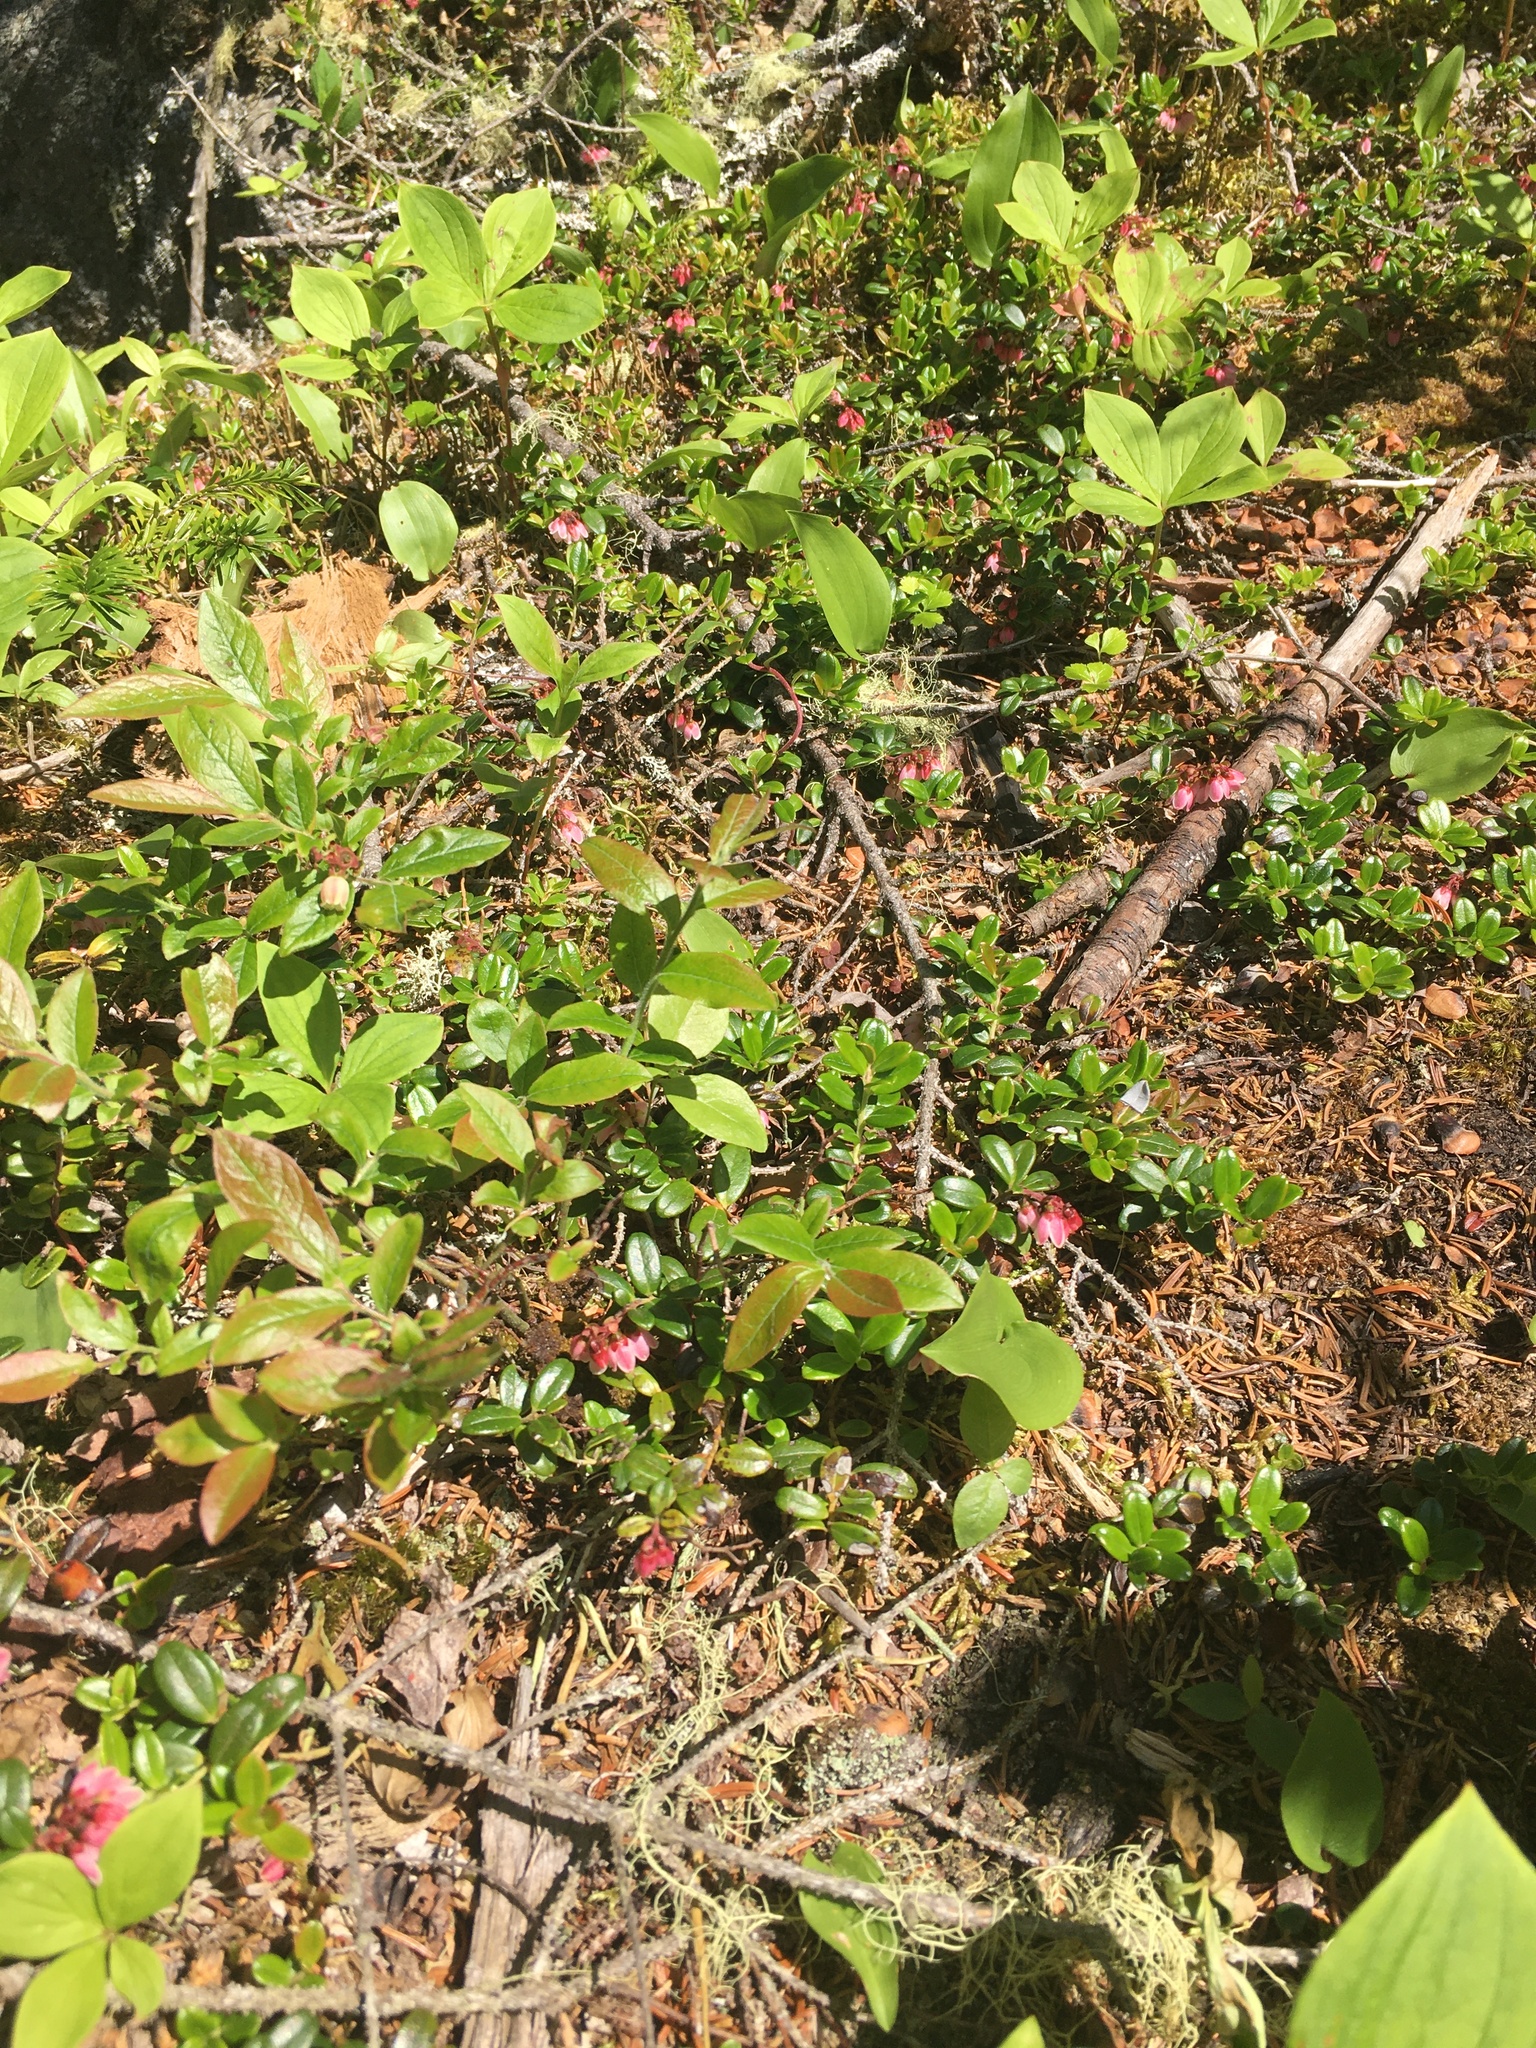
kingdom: Plantae
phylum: Tracheophyta
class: Magnoliopsida
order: Ericales
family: Ericaceae
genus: Vaccinium
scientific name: Vaccinium vitis-idaea
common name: Cowberry
